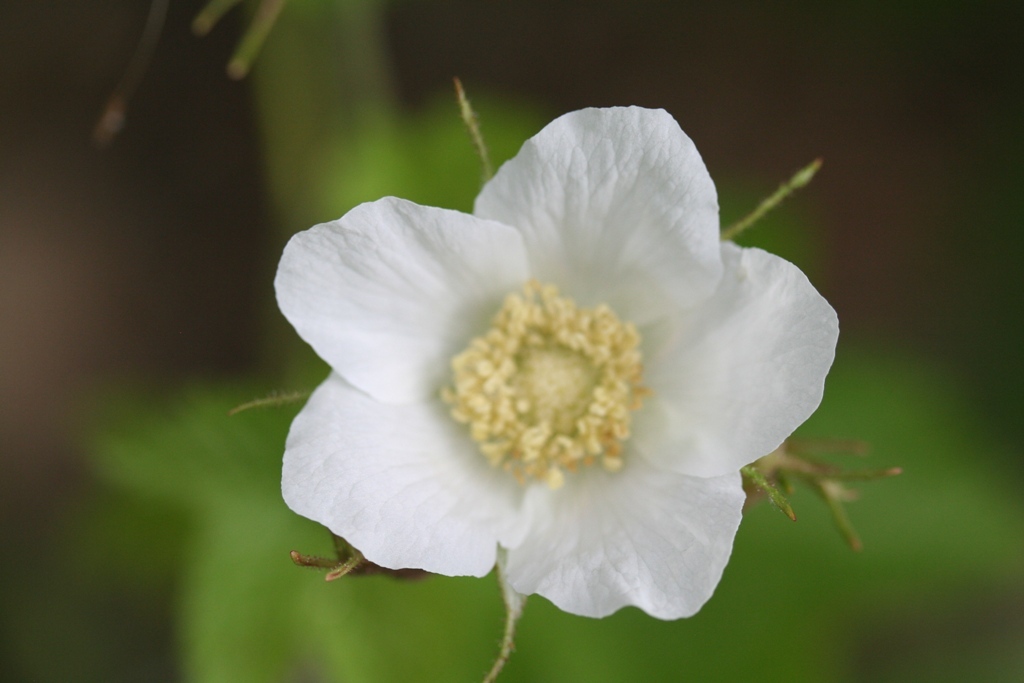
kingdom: Plantae
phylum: Tracheophyta
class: Magnoliopsida
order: Rosales
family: Rosaceae
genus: Rubus
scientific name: Rubus parviflorus
